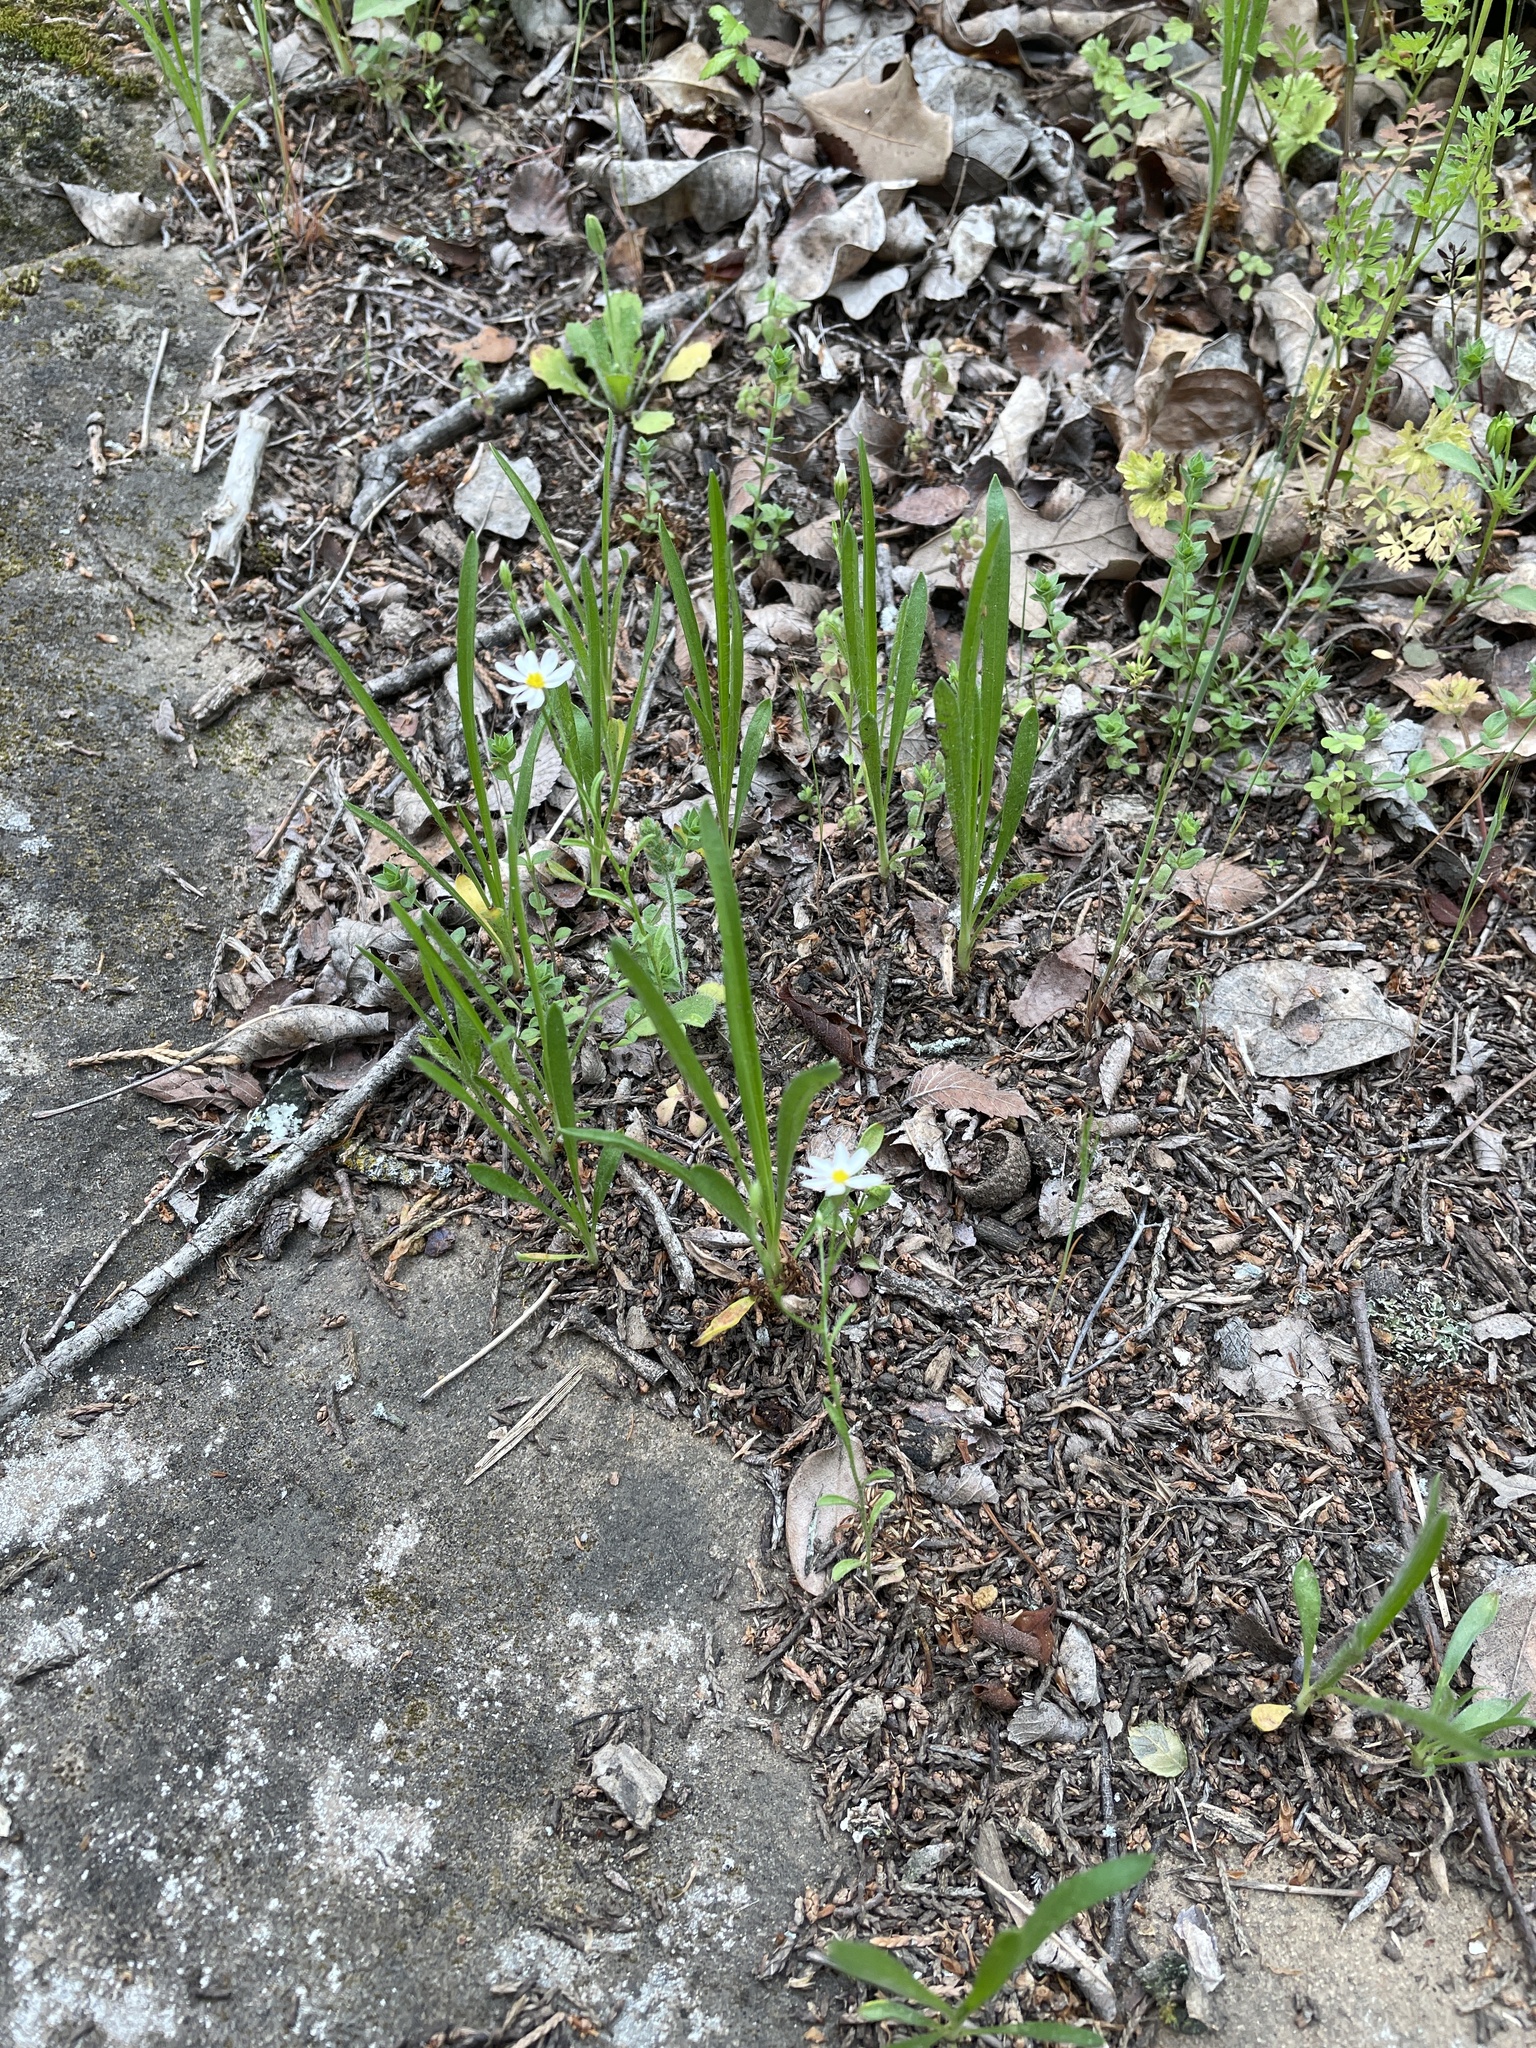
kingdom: Plantae
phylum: Tracheophyta
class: Magnoliopsida
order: Asterales
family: Asteraceae
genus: Chaetopappa
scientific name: Chaetopappa asteroides
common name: Tiny lazy daisy
